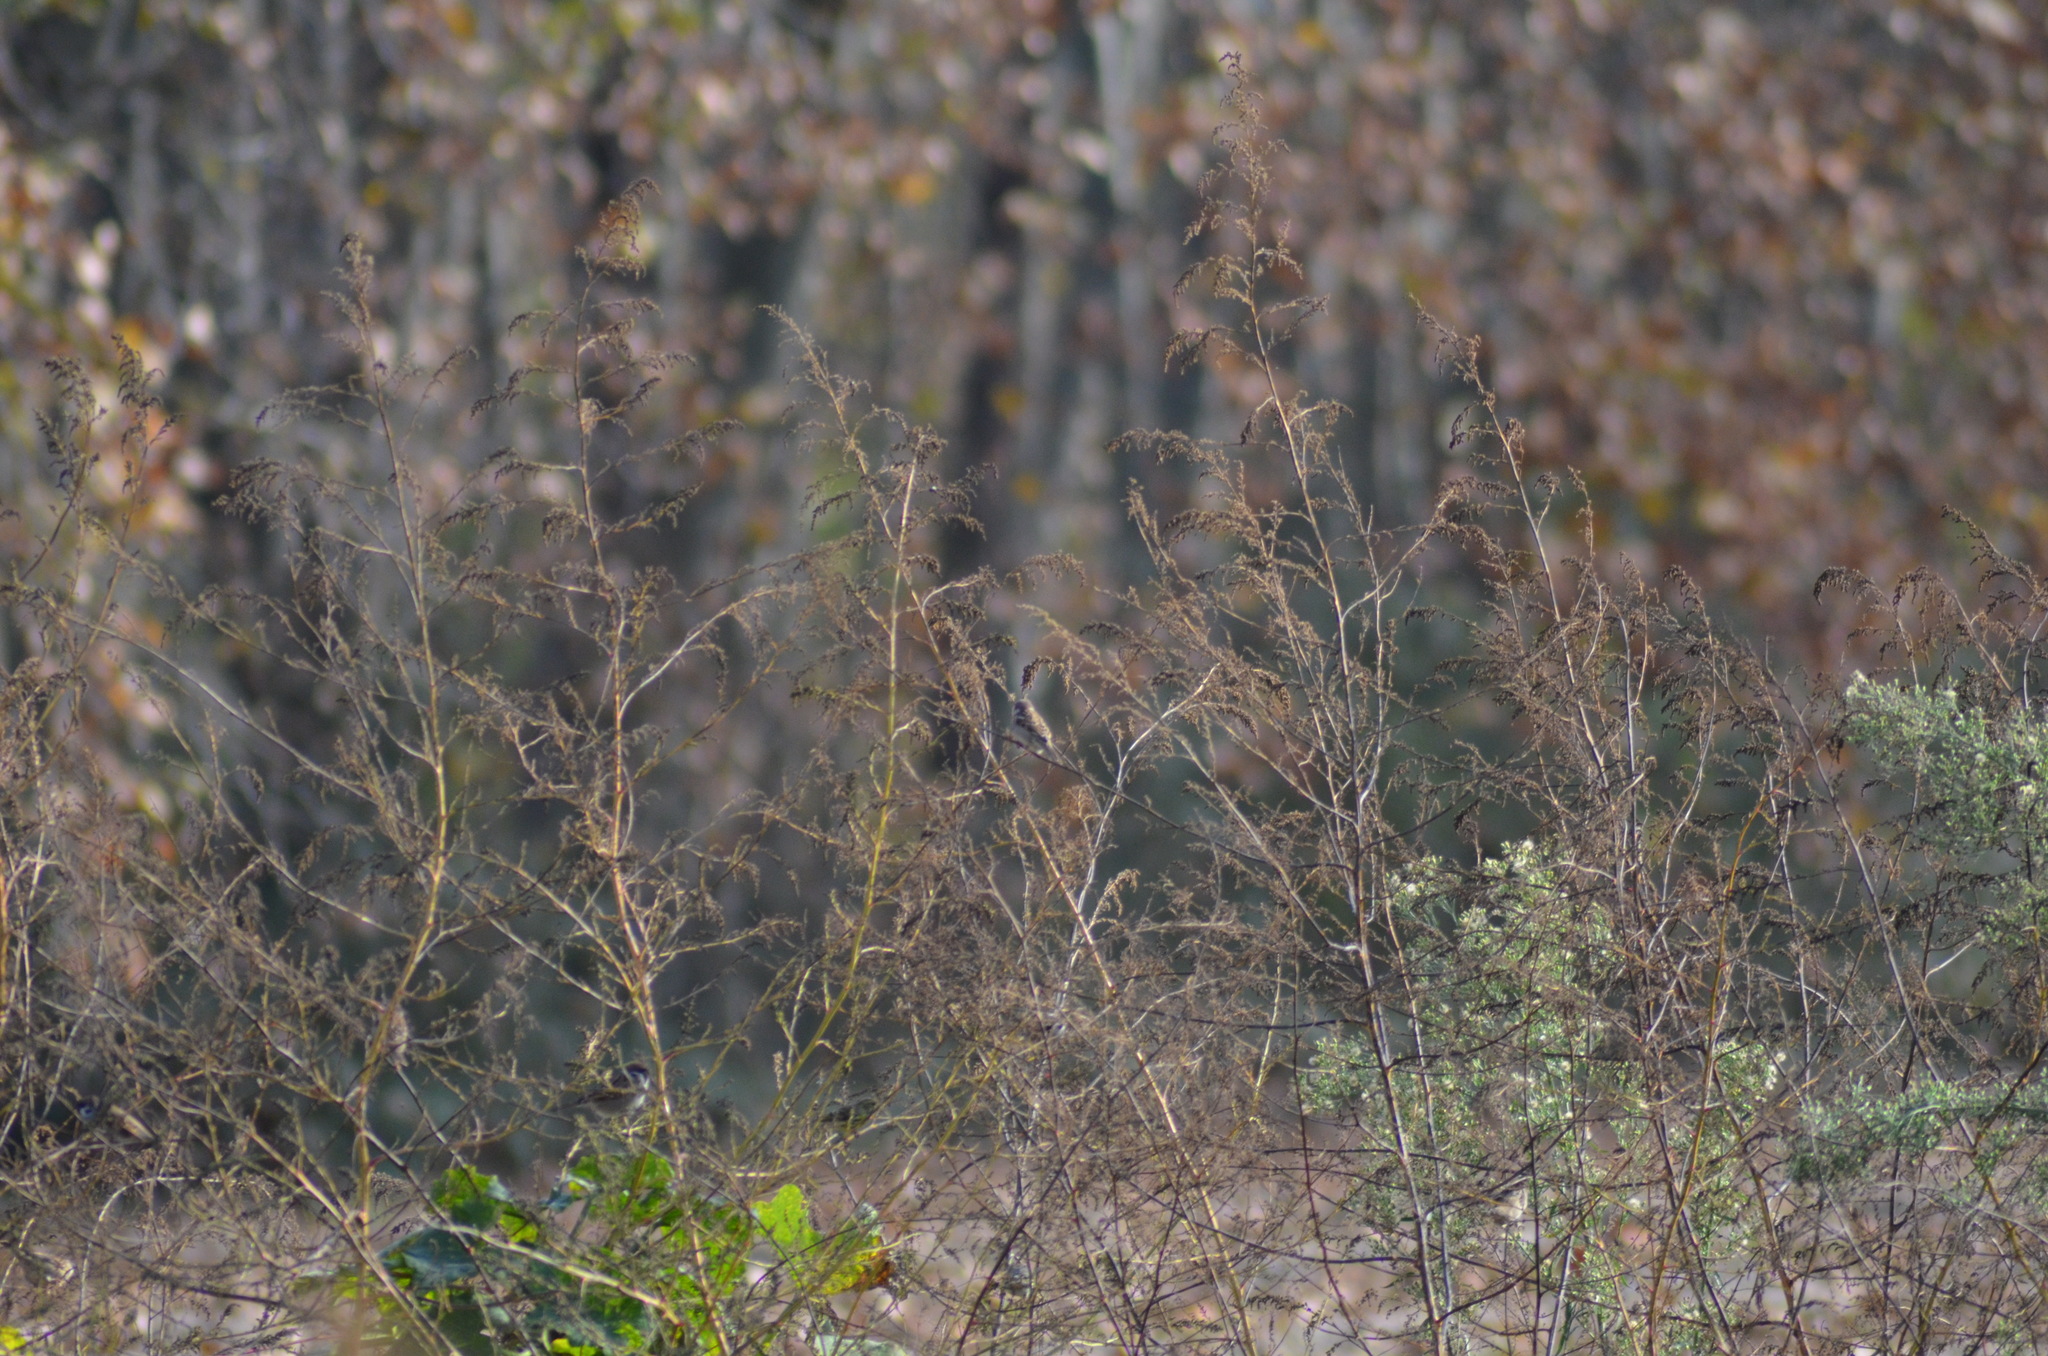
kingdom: Animalia
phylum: Chordata
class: Aves
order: Passeriformes
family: Passeridae
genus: Passer
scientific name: Passer montanus
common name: Eurasian tree sparrow
